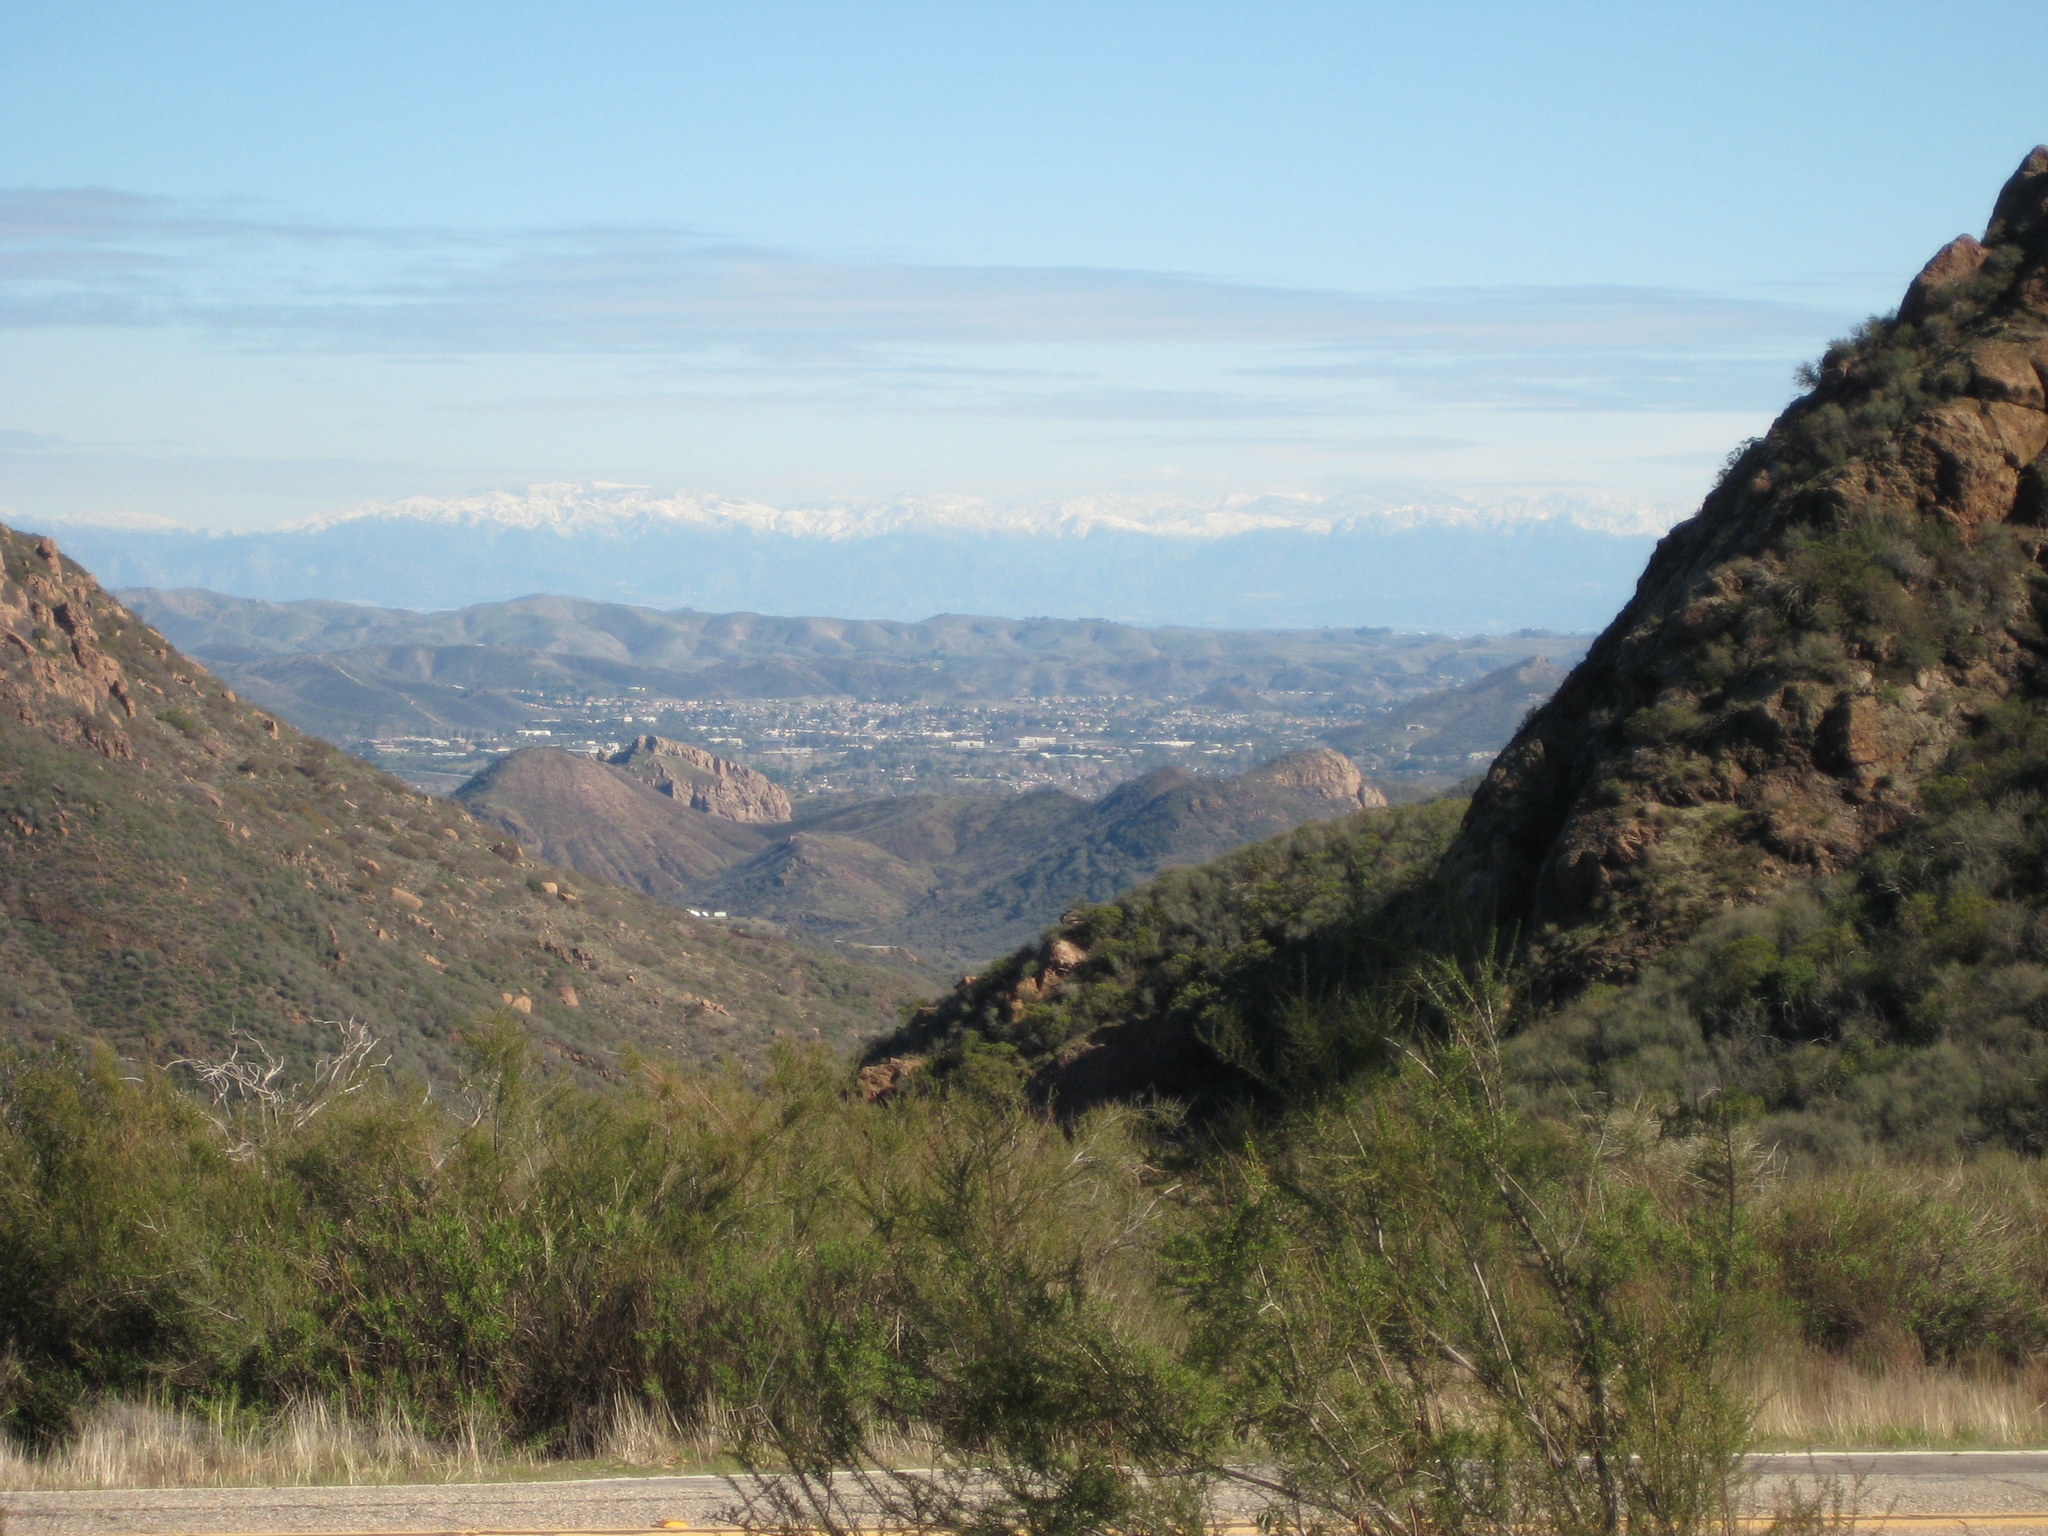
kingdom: Plantae
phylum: Tracheophyta
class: Magnoliopsida
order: Rosales
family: Rosaceae
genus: Adenostoma
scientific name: Adenostoma fasciculatum
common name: Chamise
